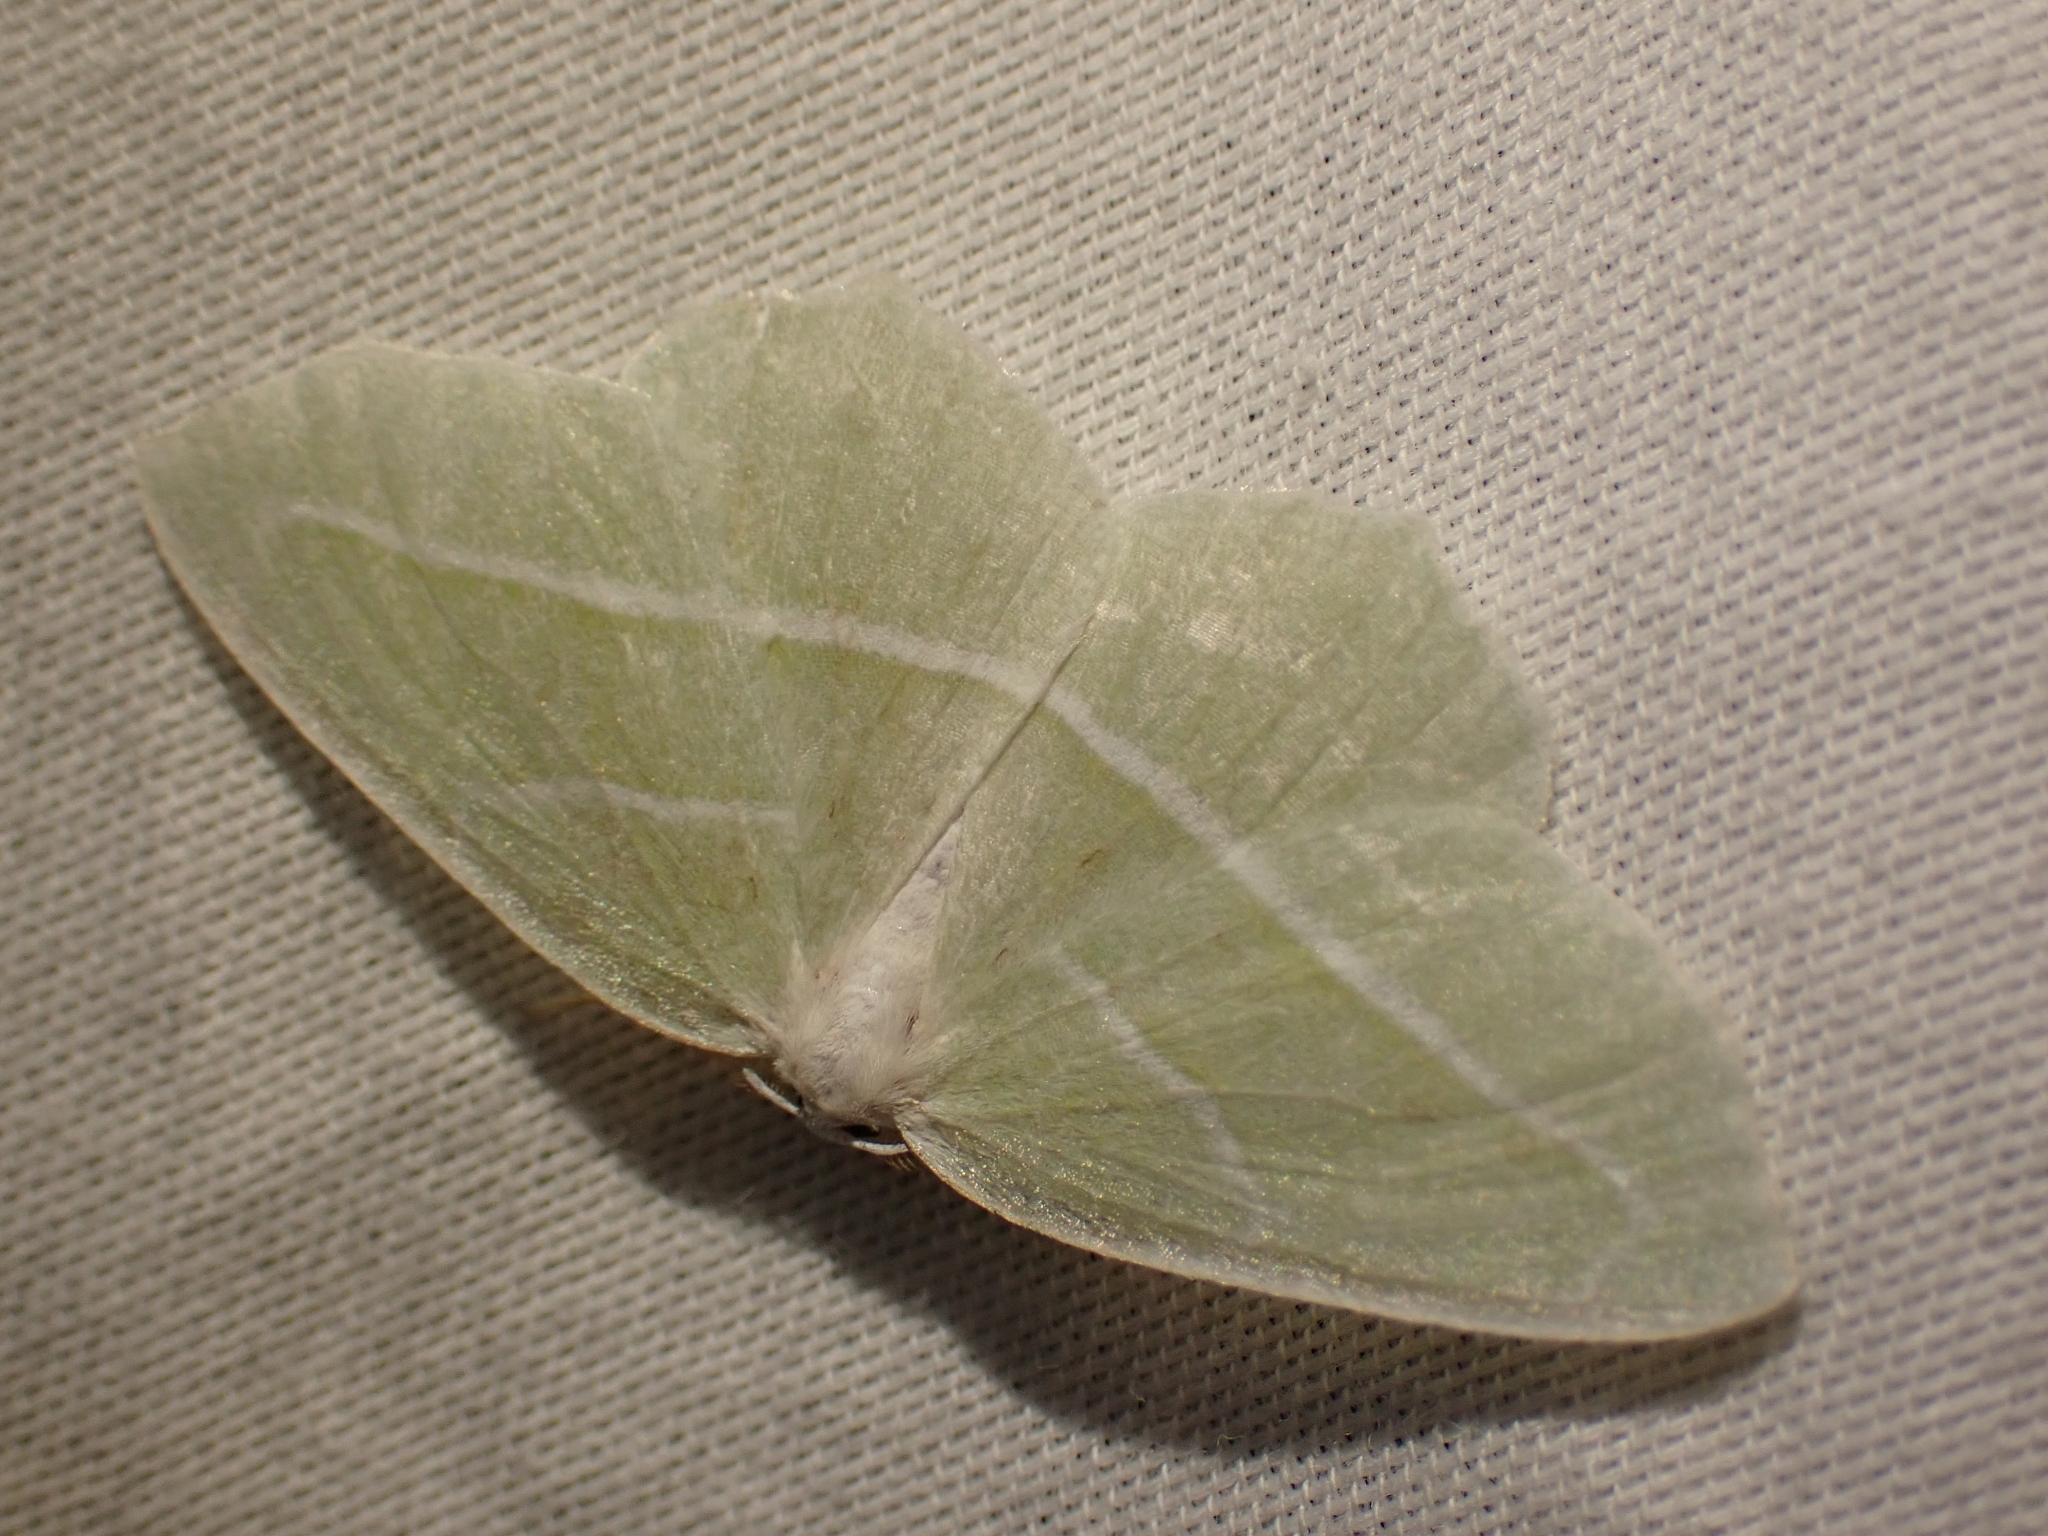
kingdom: Animalia
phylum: Arthropoda
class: Insecta
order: Lepidoptera
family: Geometridae
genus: Campaea
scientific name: Campaea perlata
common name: Fringed looper
